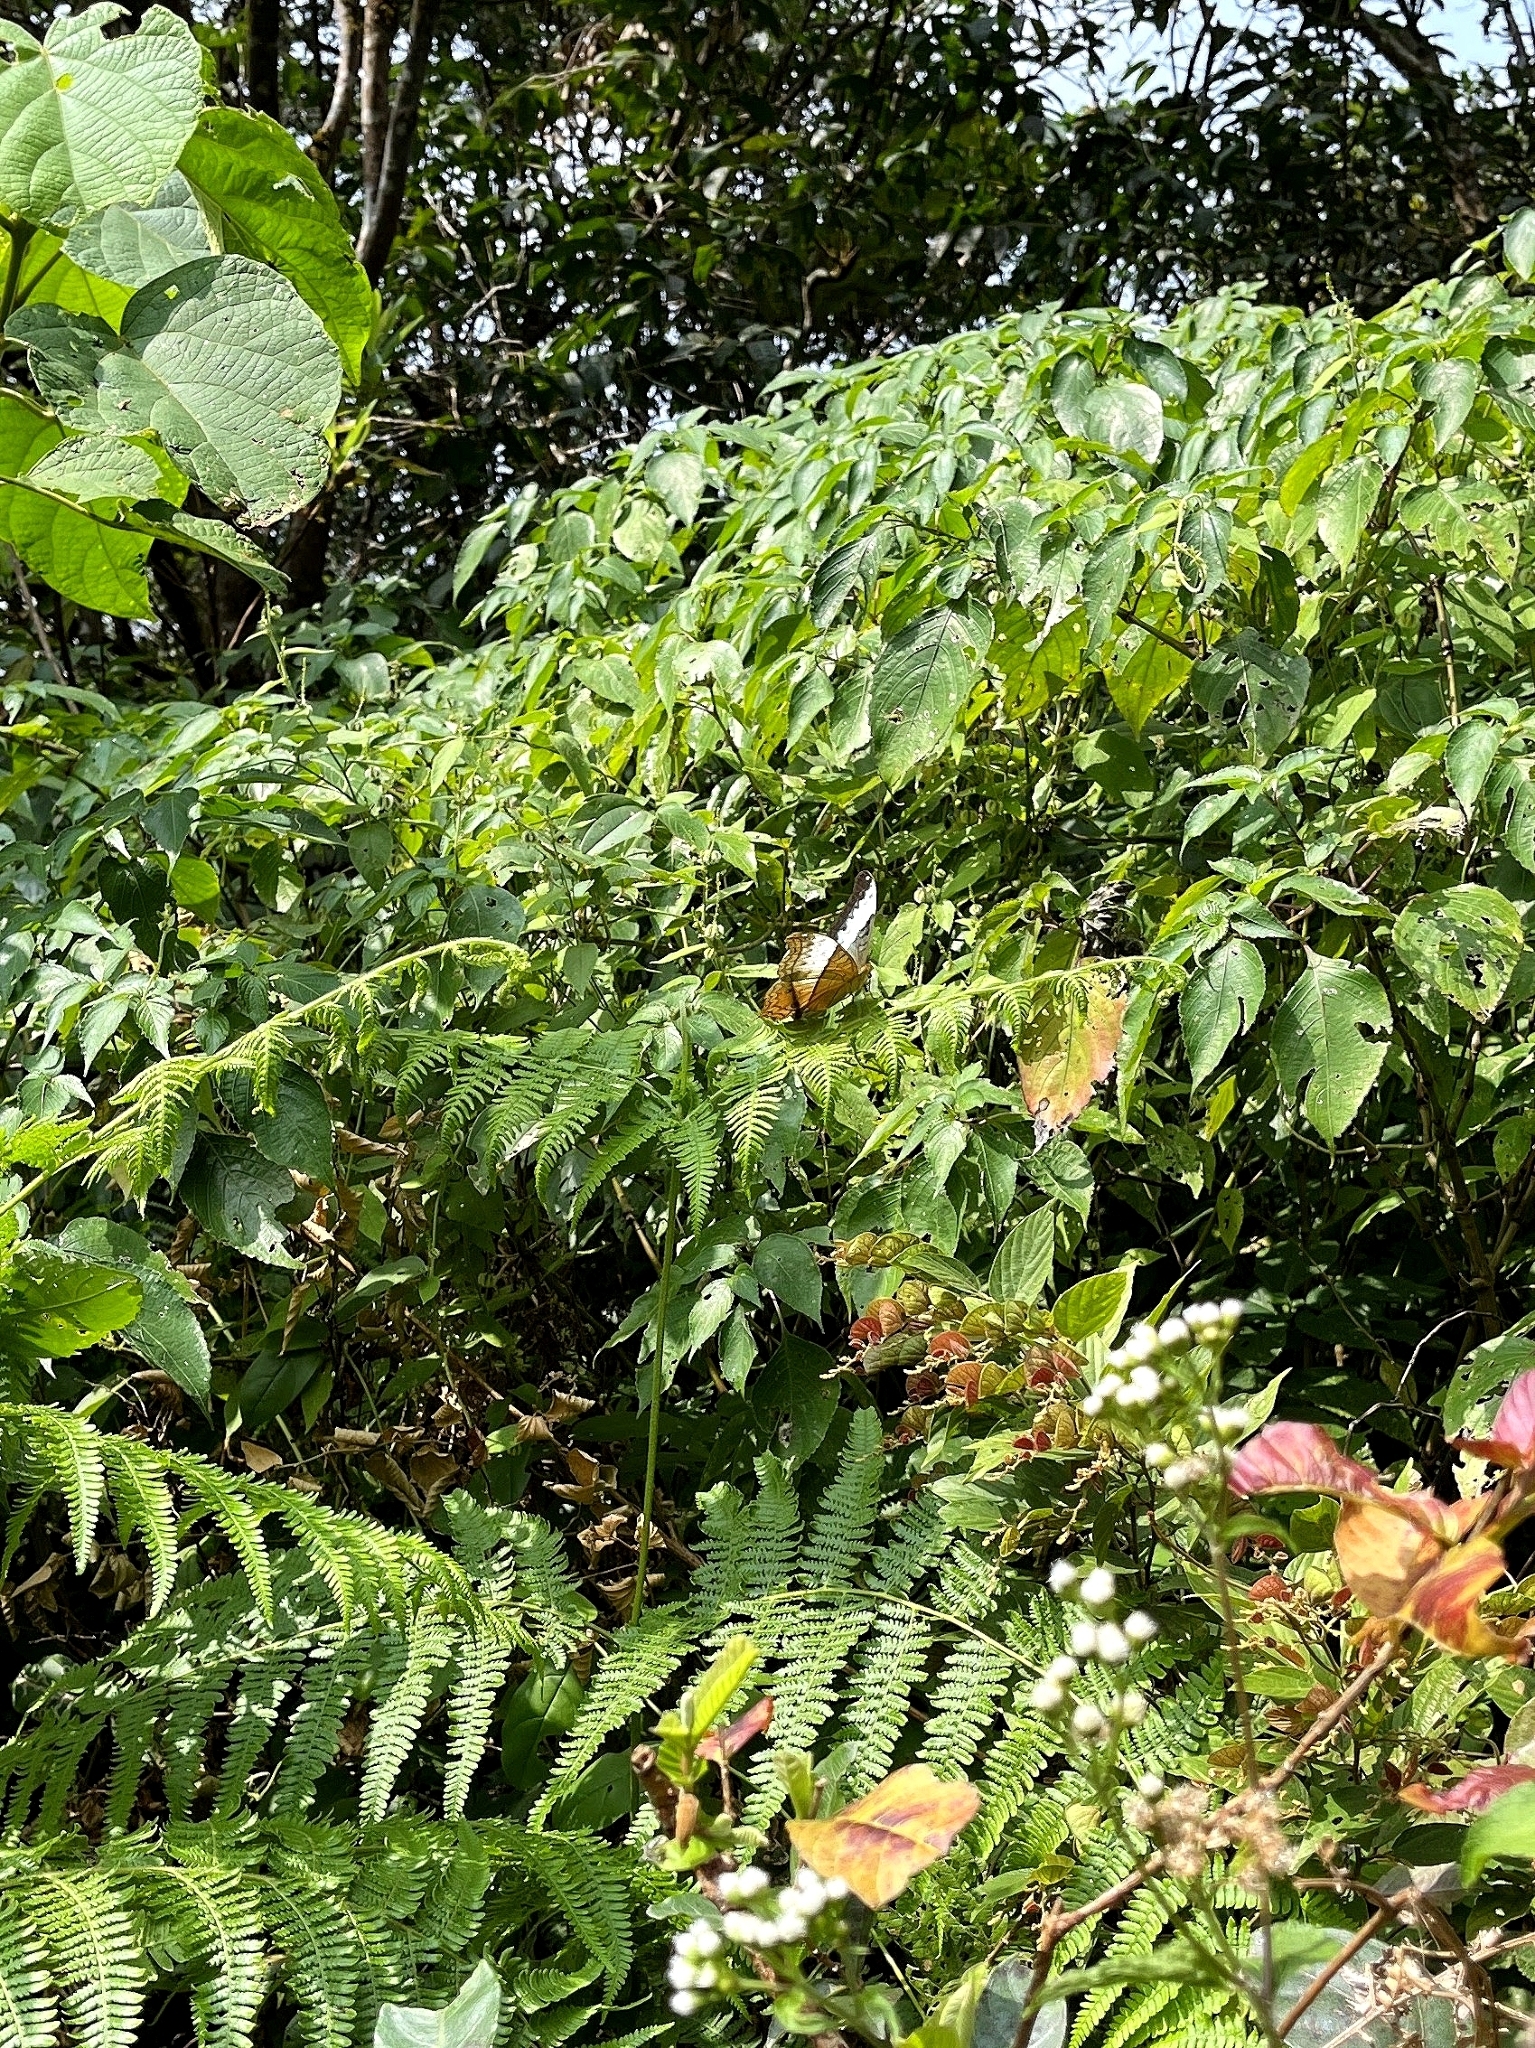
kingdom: Animalia
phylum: Arthropoda
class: Insecta
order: Lepidoptera
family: Nymphalidae
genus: Vindula
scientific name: Vindula erota
